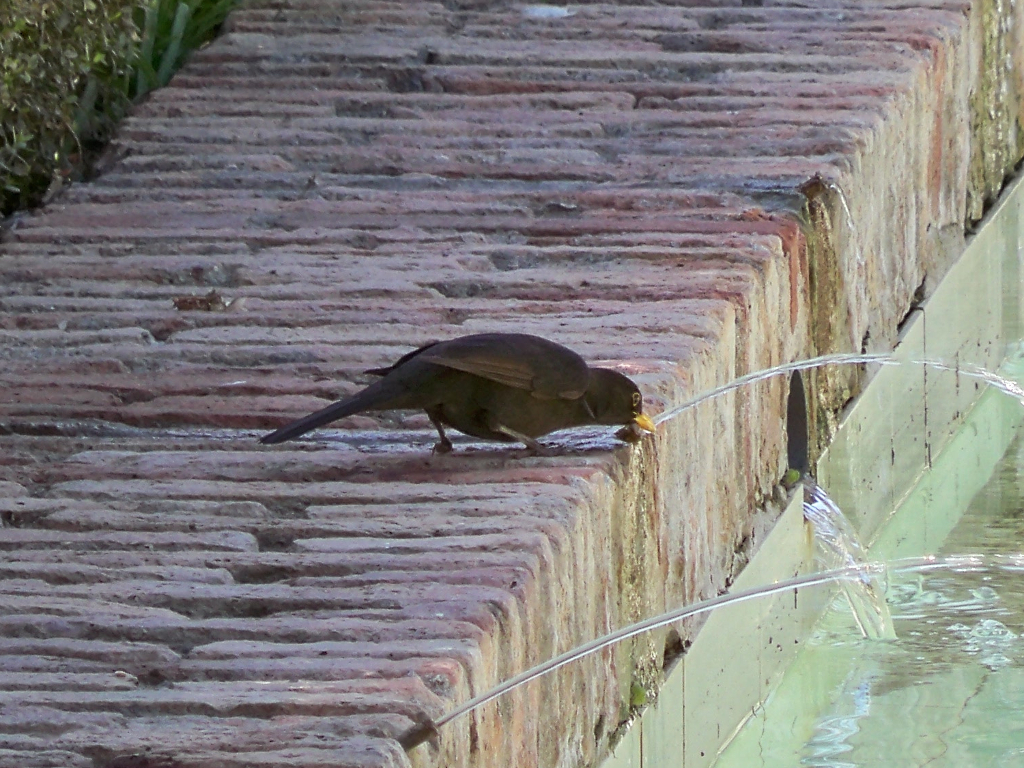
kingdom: Animalia
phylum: Chordata
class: Aves
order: Passeriformes
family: Turdidae
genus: Turdus
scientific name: Turdus merula
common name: Common blackbird
